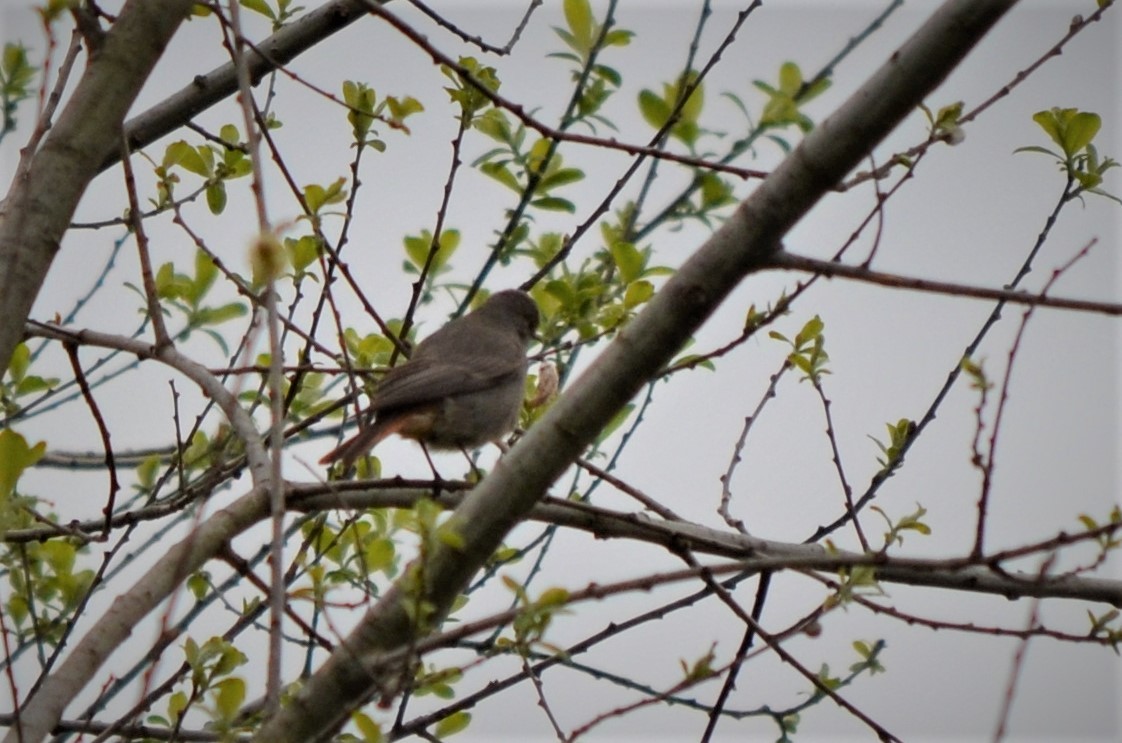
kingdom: Animalia
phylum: Chordata
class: Aves
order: Passeriformes
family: Muscicapidae
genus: Phoenicurus
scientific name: Phoenicurus ochruros
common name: Black redstart
